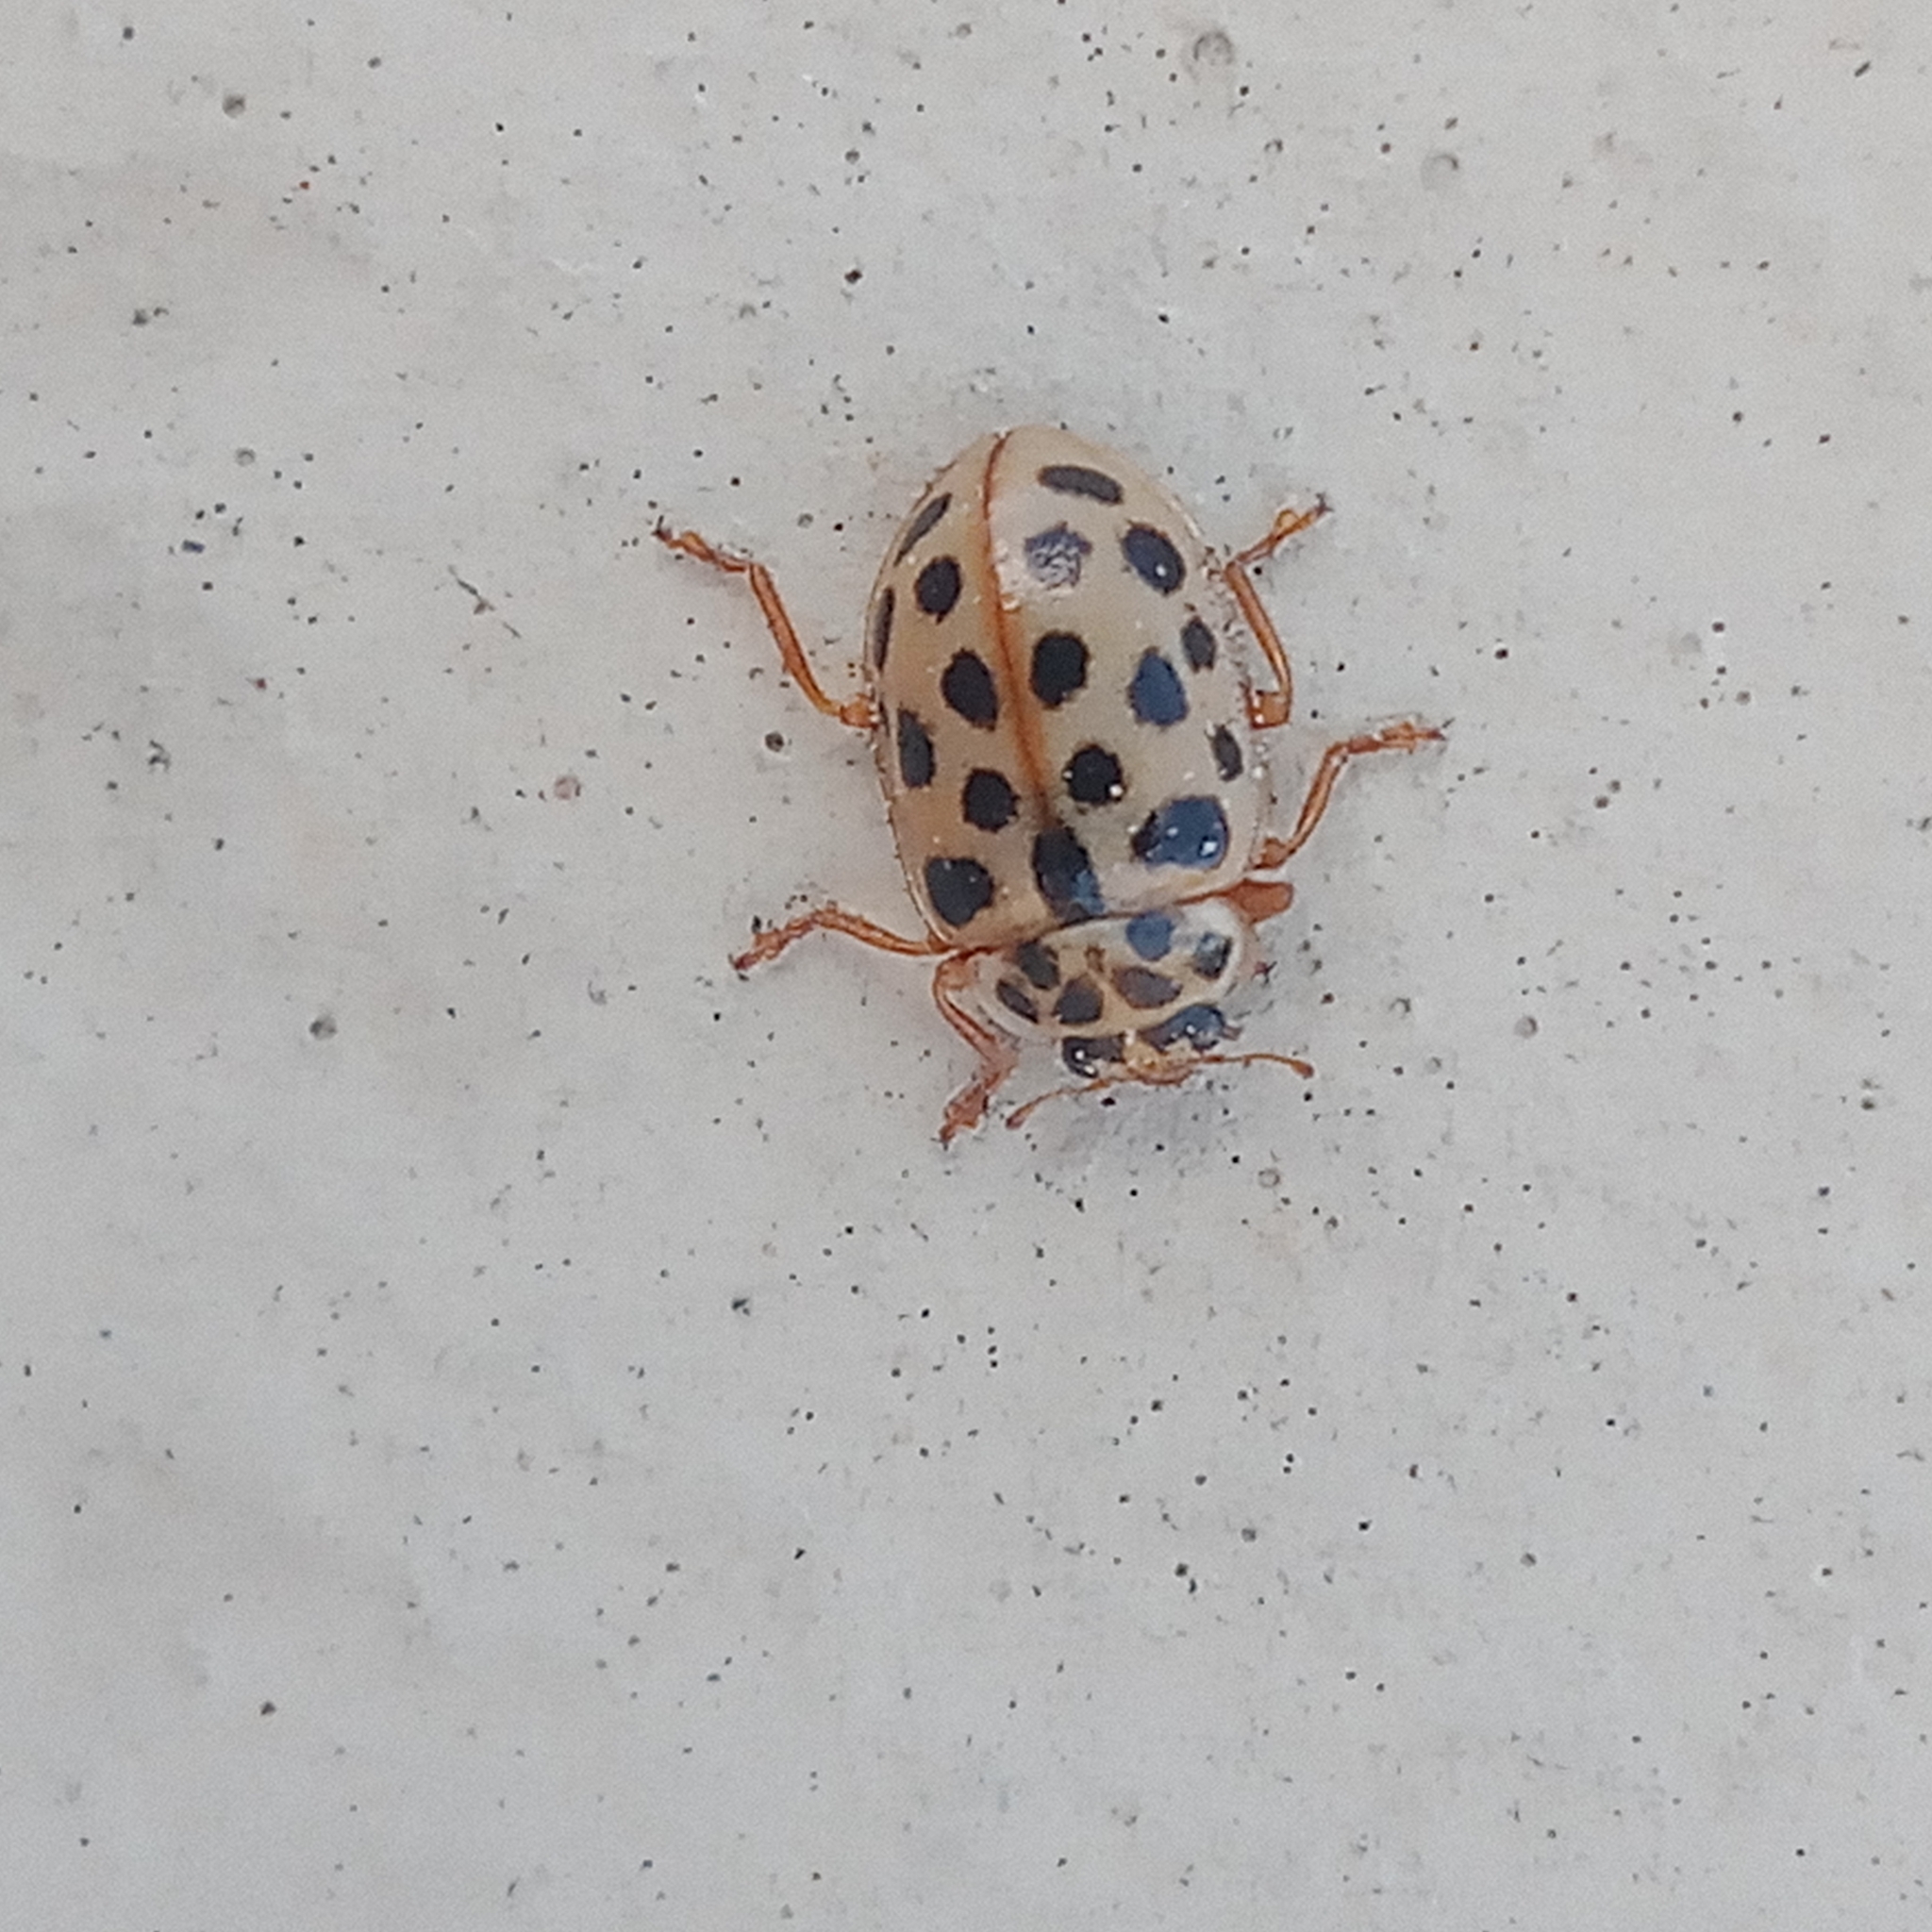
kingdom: Animalia
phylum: Arthropoda
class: Insecta
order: Coleoptera
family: Coccinellidae
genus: Anisosticta
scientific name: Anisosticta novemdecimpunctata
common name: Water ladybird
